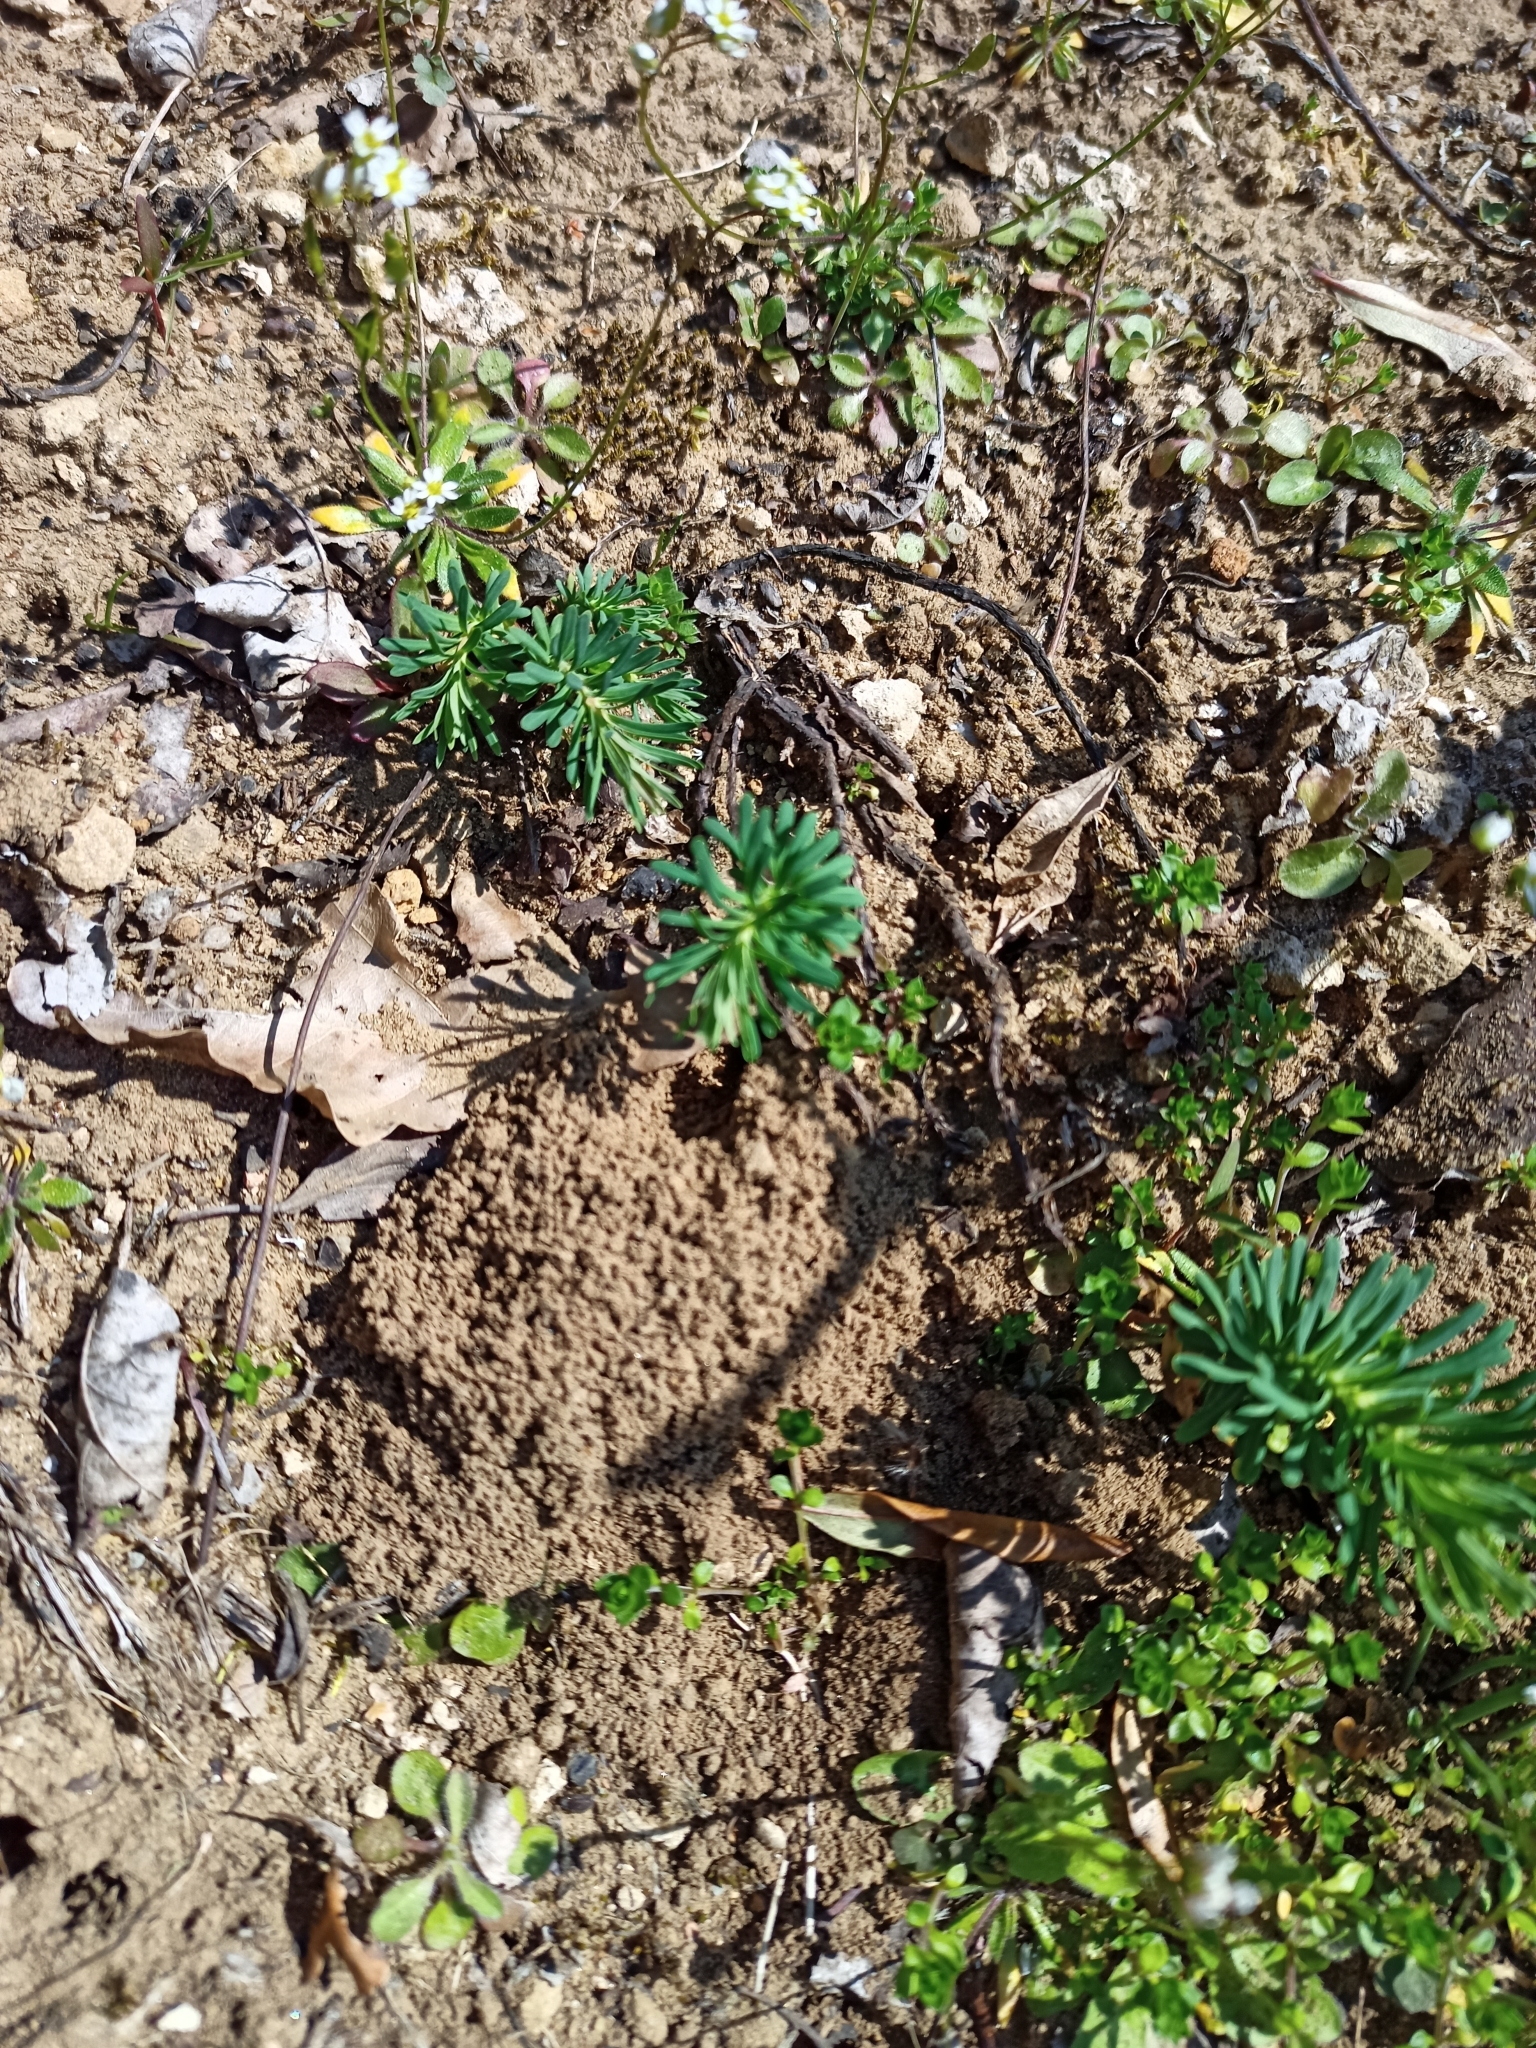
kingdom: Plantae
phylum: Tracheophyta
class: Magnoliopsida
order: Malpighiales
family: Euphorbiaceae
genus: Euphorbia
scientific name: Euphorbia cyparissias
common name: Cypress spurge
